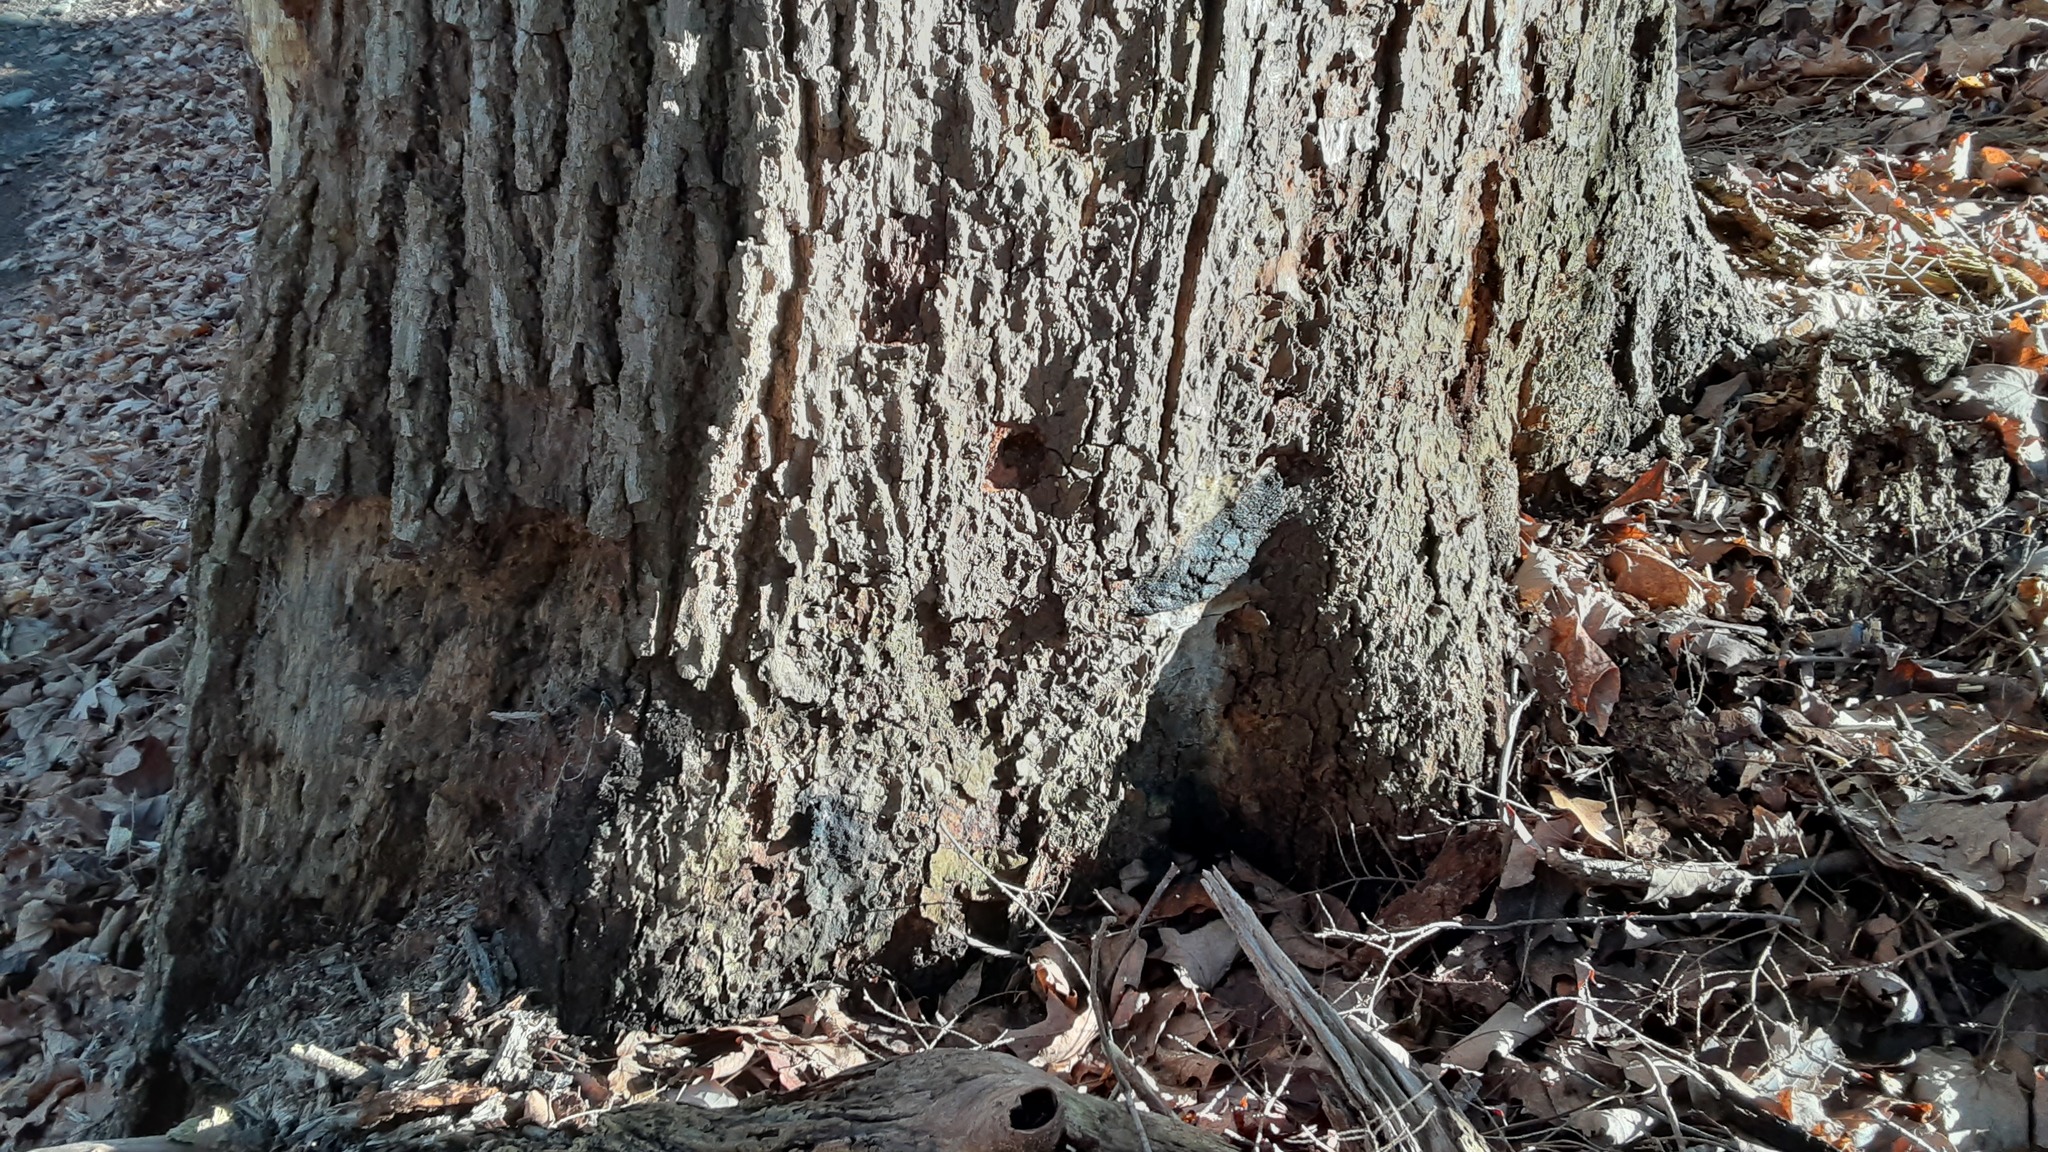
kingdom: Protozoa
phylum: Mycetozoa
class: Myxomycetes
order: Stemonitidales
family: Stemonitidaceae
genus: Brefeldia
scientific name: Brefeldia maxima
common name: Tapioca slime mold
